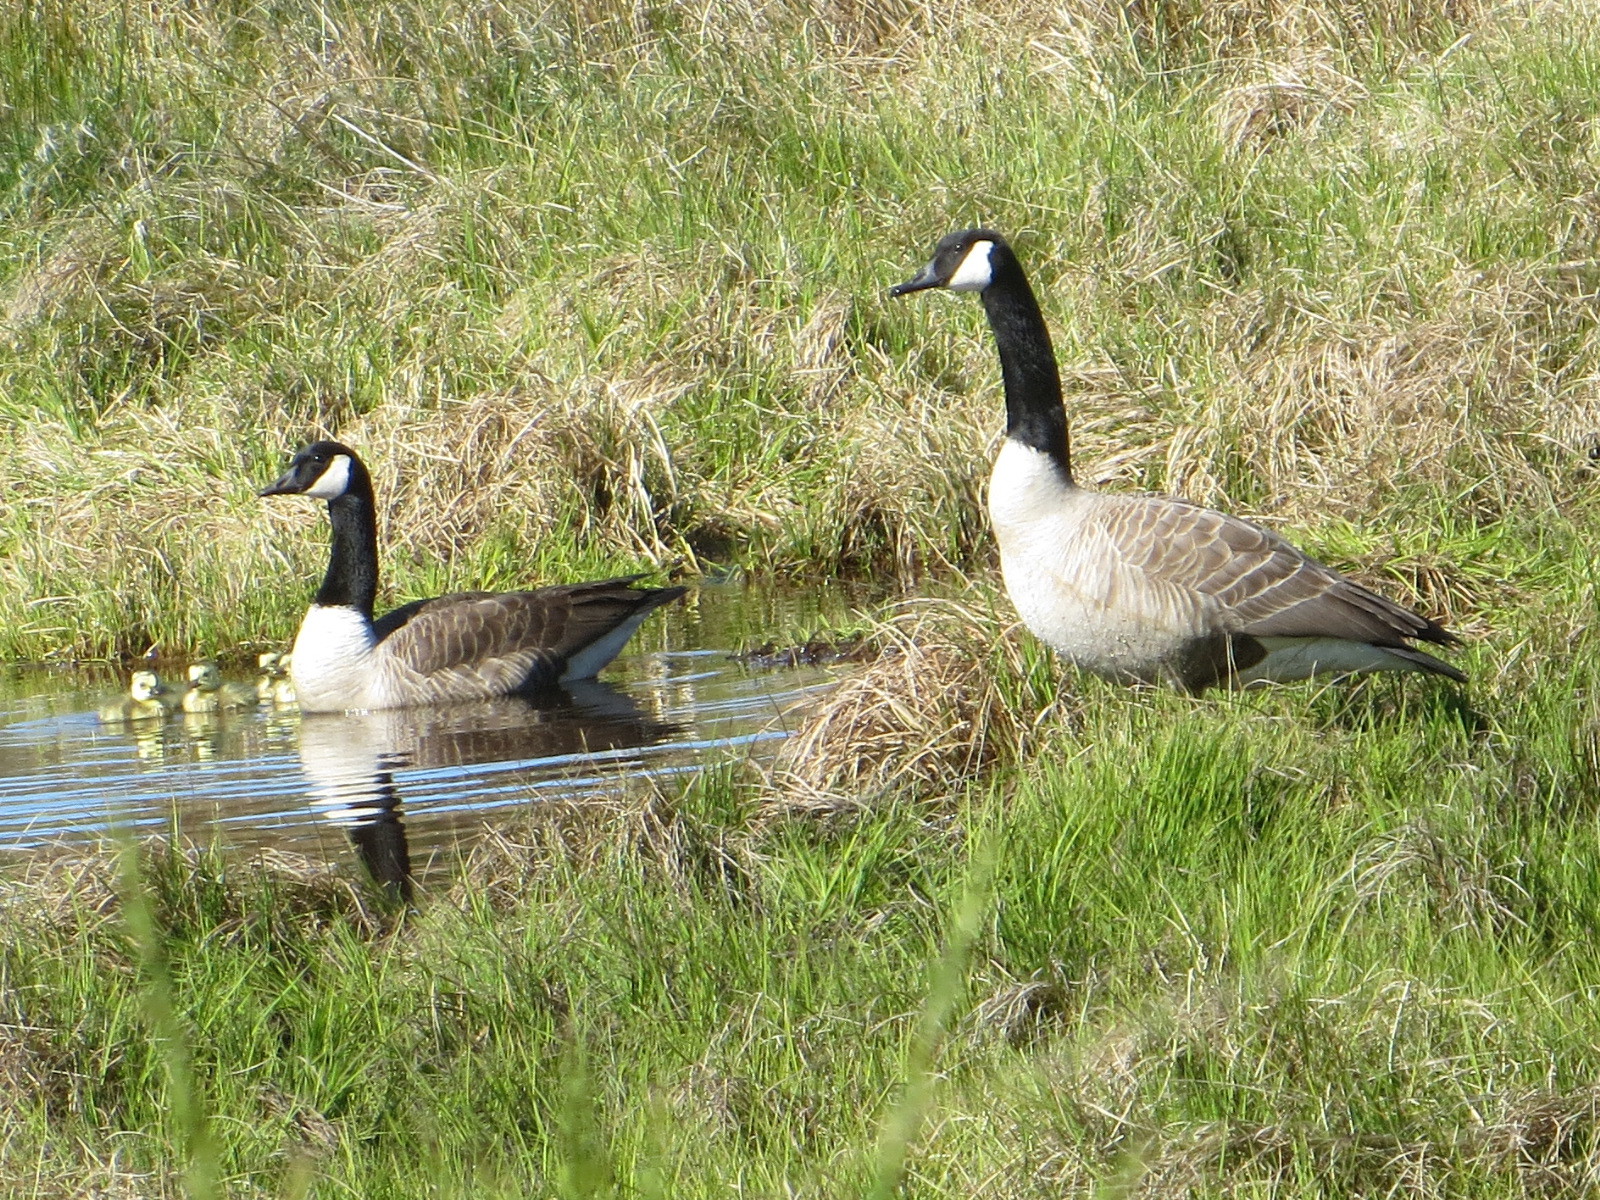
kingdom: Animalia
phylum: Chordata
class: Aves
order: Anseriformes
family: Anatidae
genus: Branta
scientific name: Branta canadensis
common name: Canada goose
